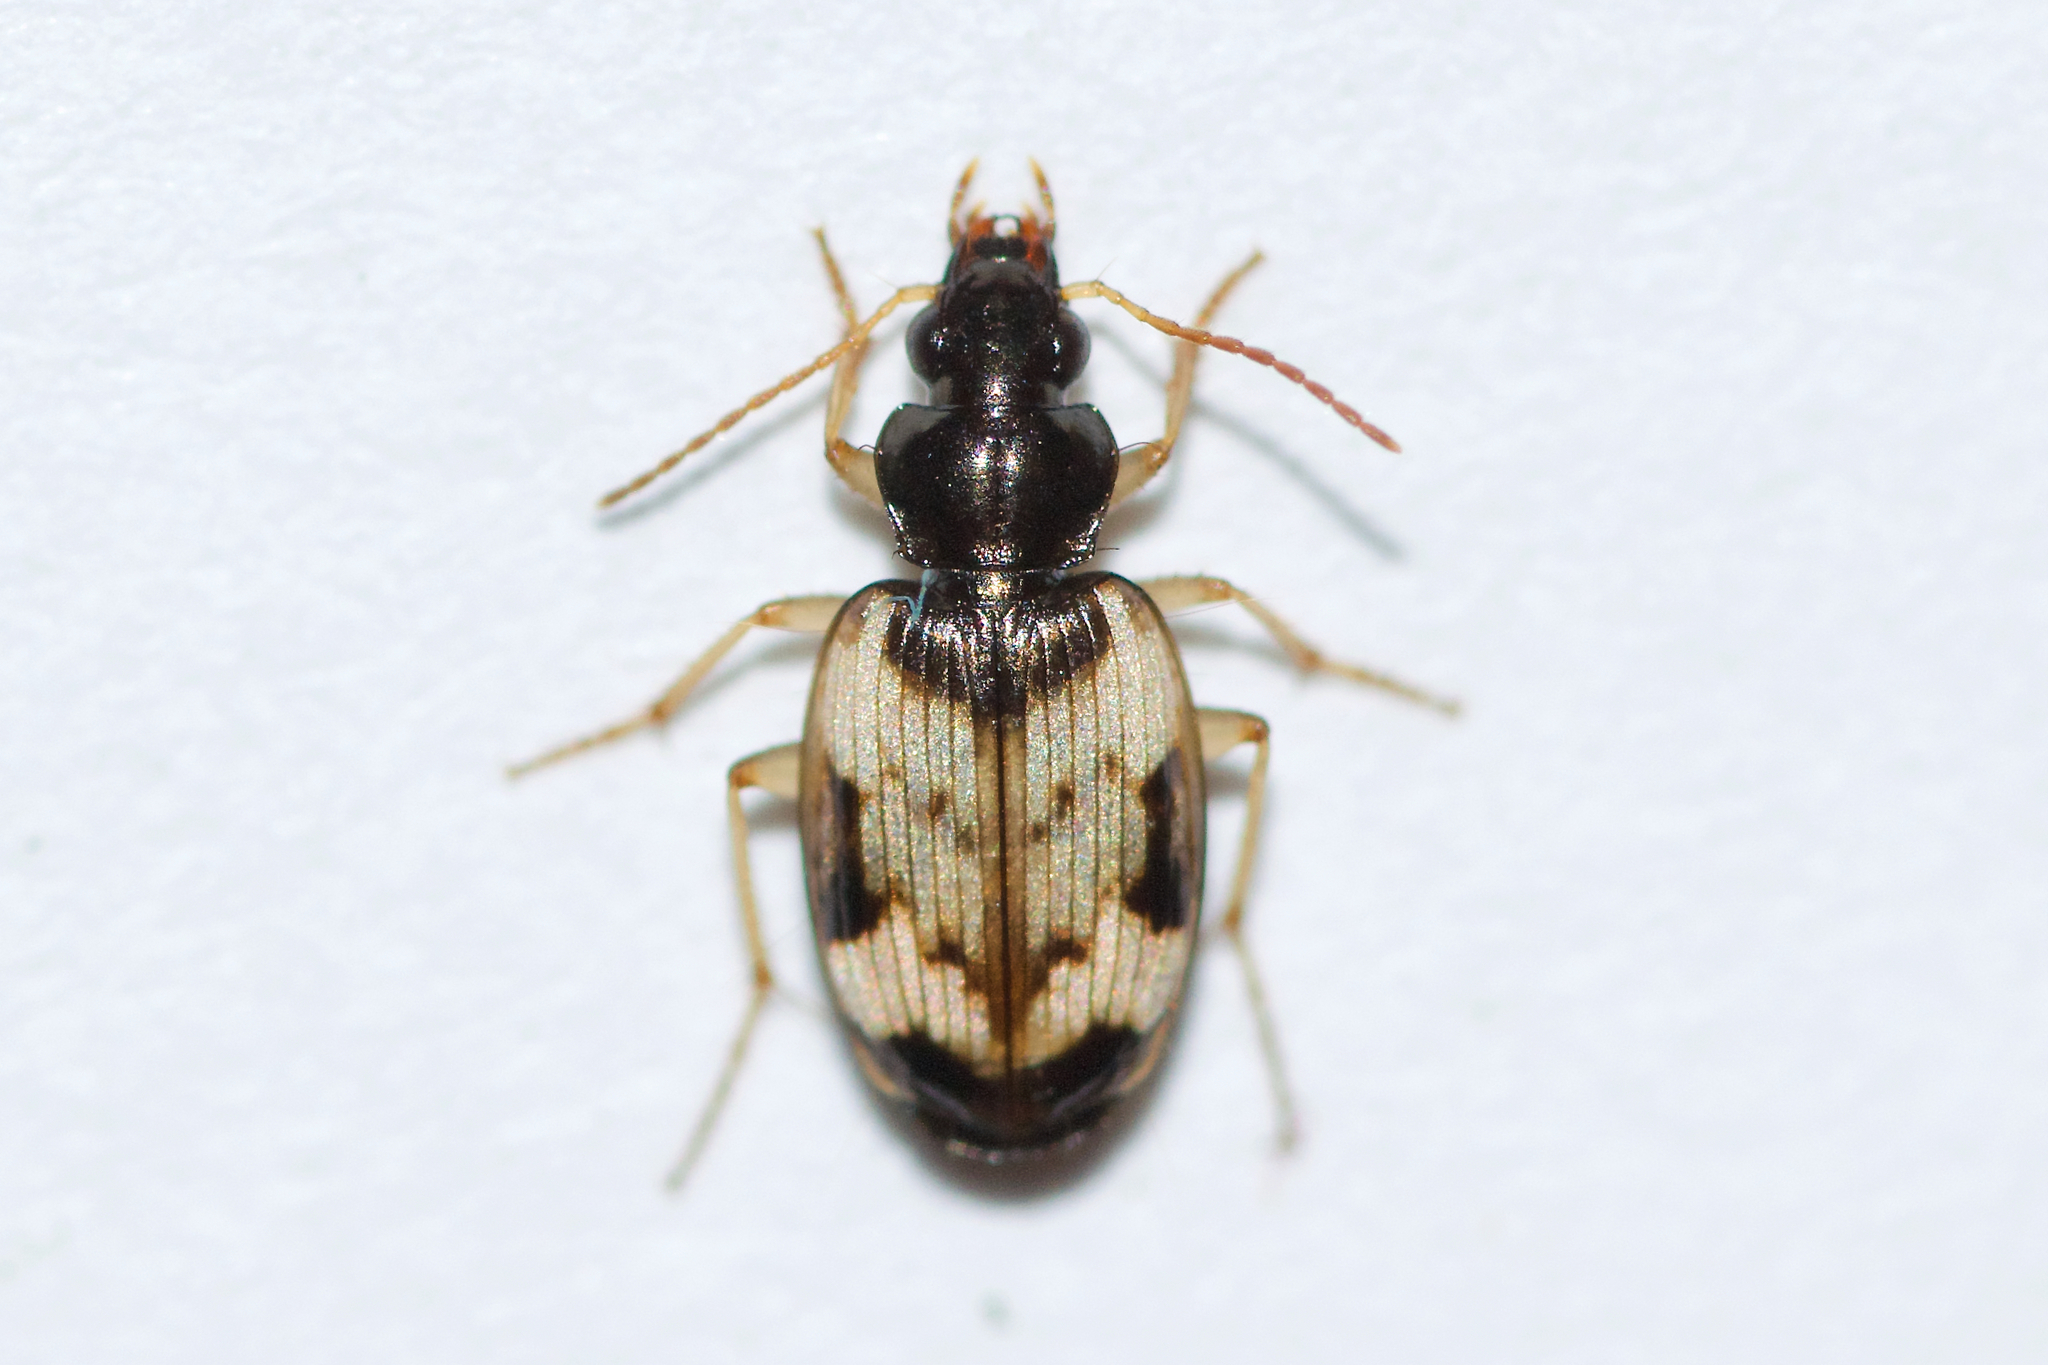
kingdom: Animalia
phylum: Arthropoda
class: Insecta
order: Coleoptera
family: Carabidae
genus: Tetragonoderus
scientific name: Tetragonoderus fasciatus
